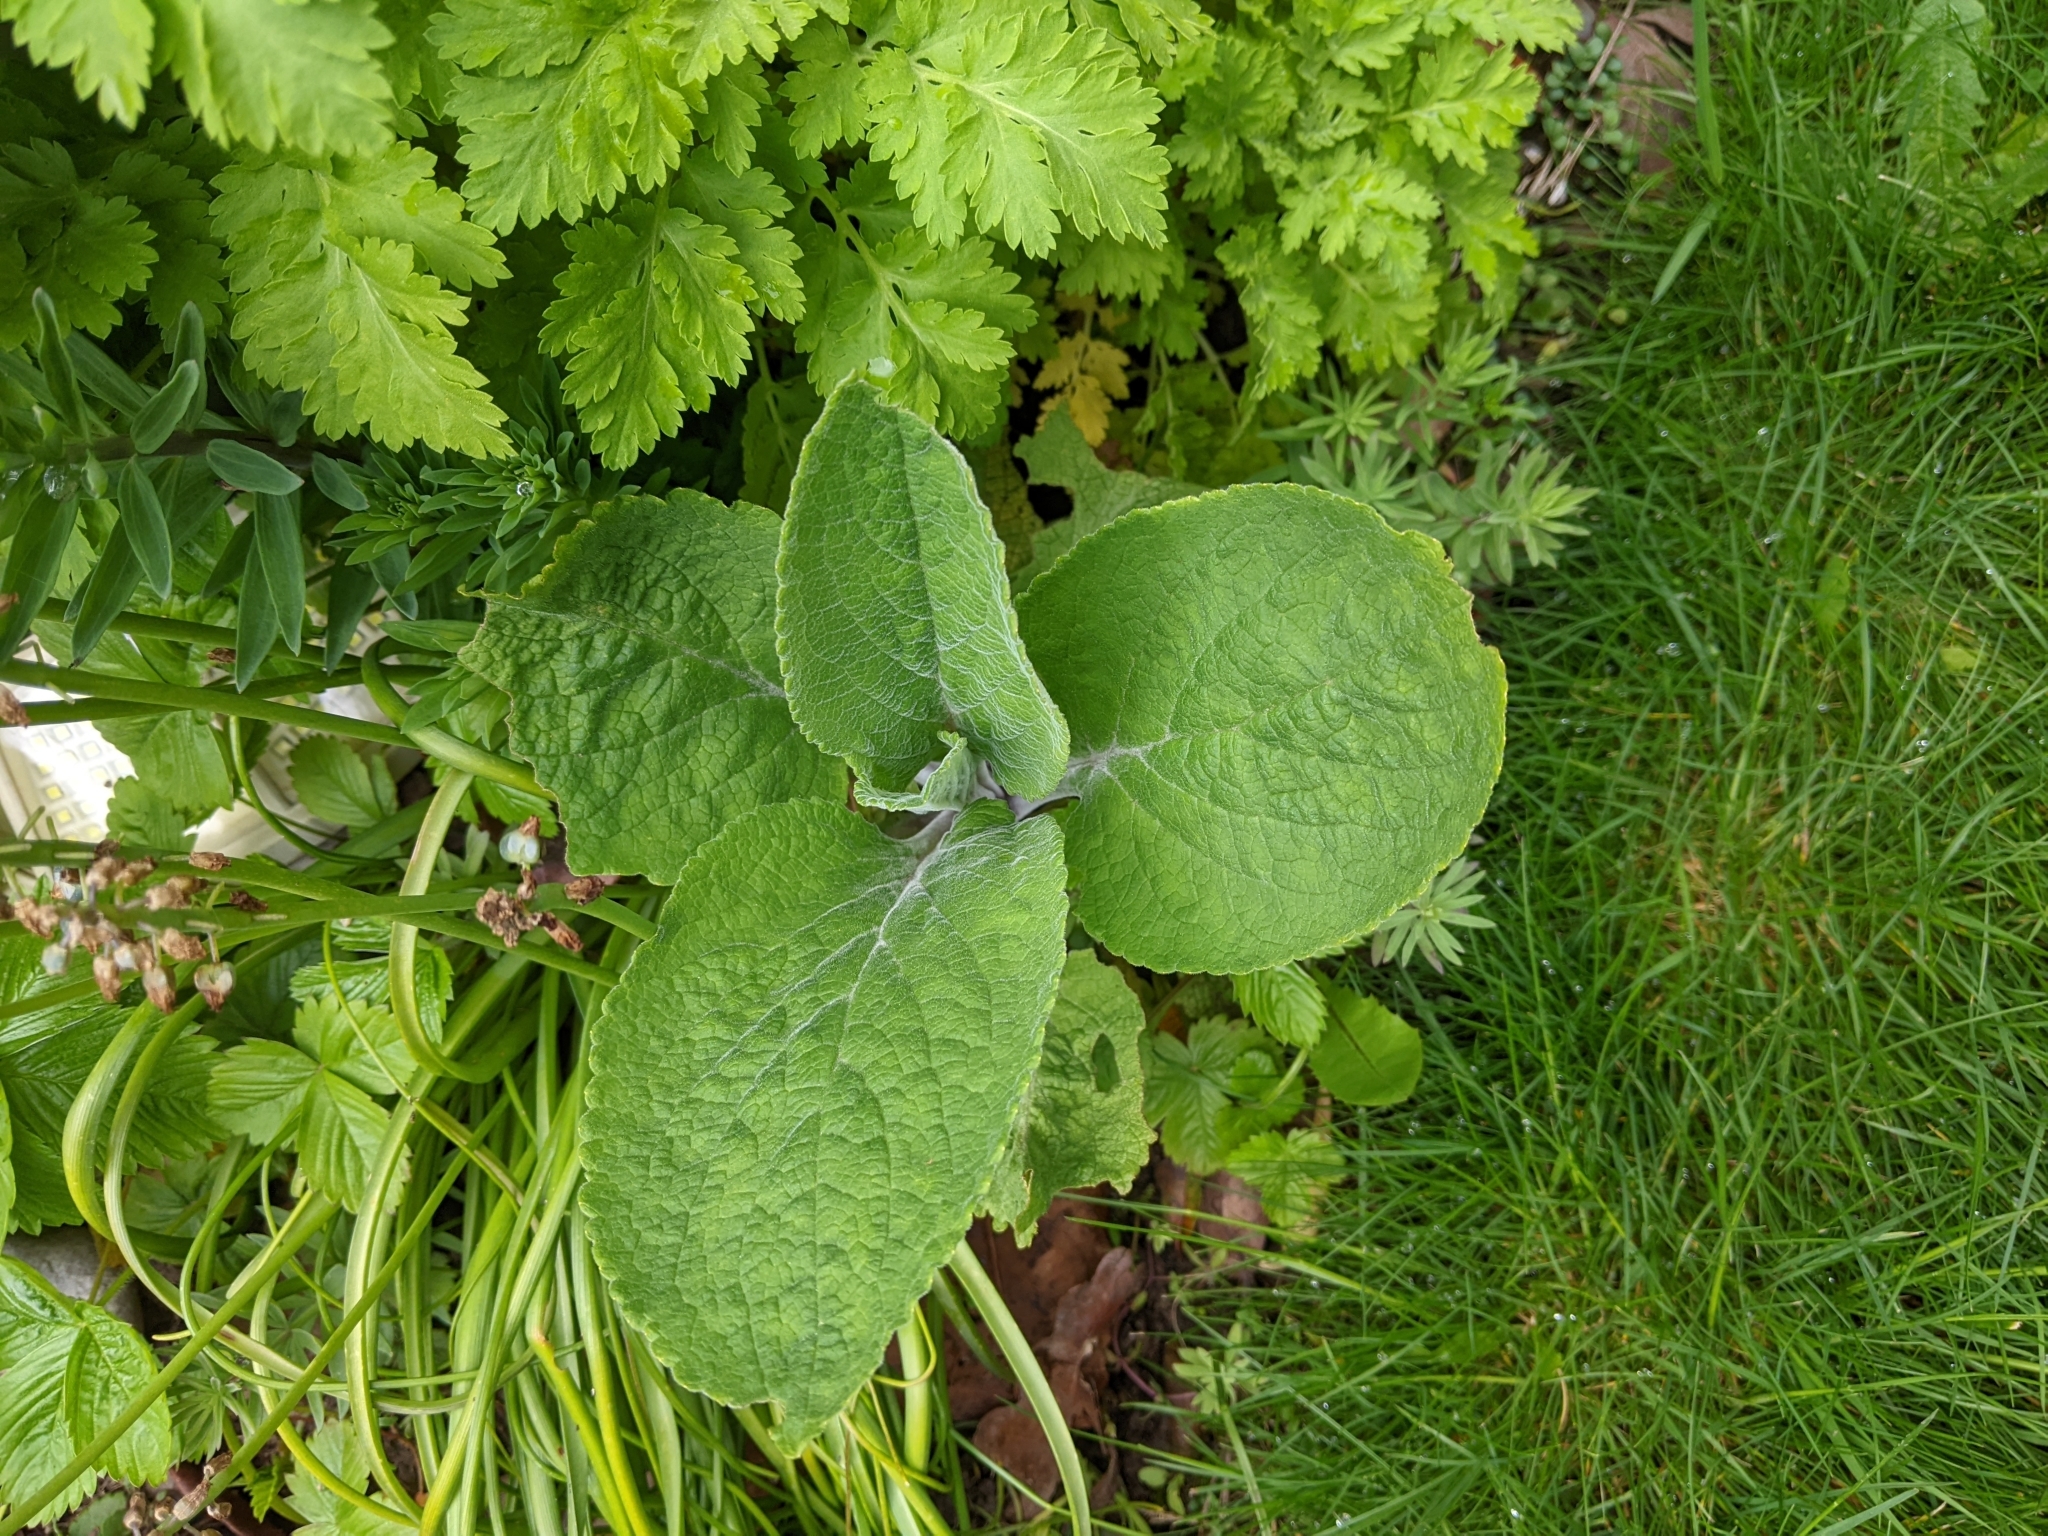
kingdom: Plantae
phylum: Tracheophyta
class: Magnoliopsida
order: Lamiales
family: Plantaginaceae
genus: Digitalis
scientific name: Digitalis purpurea
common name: Foxglove
